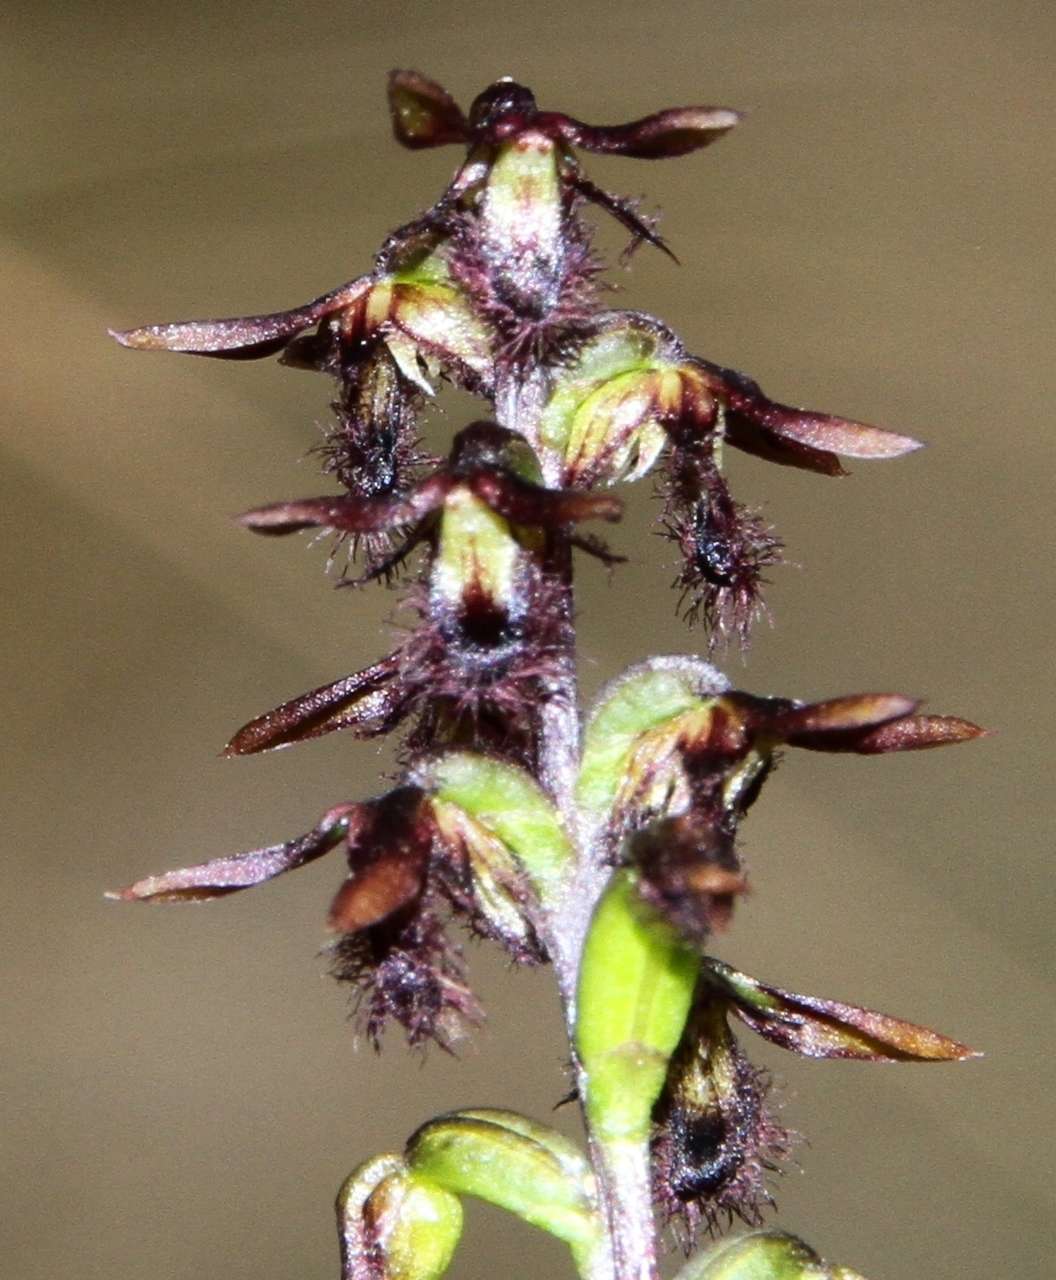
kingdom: Plantae
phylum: Tracheophyta
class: Liliopsida
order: Asparagales
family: Orchidaceae
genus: Genoplesium
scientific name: Genoplesium morrisii
